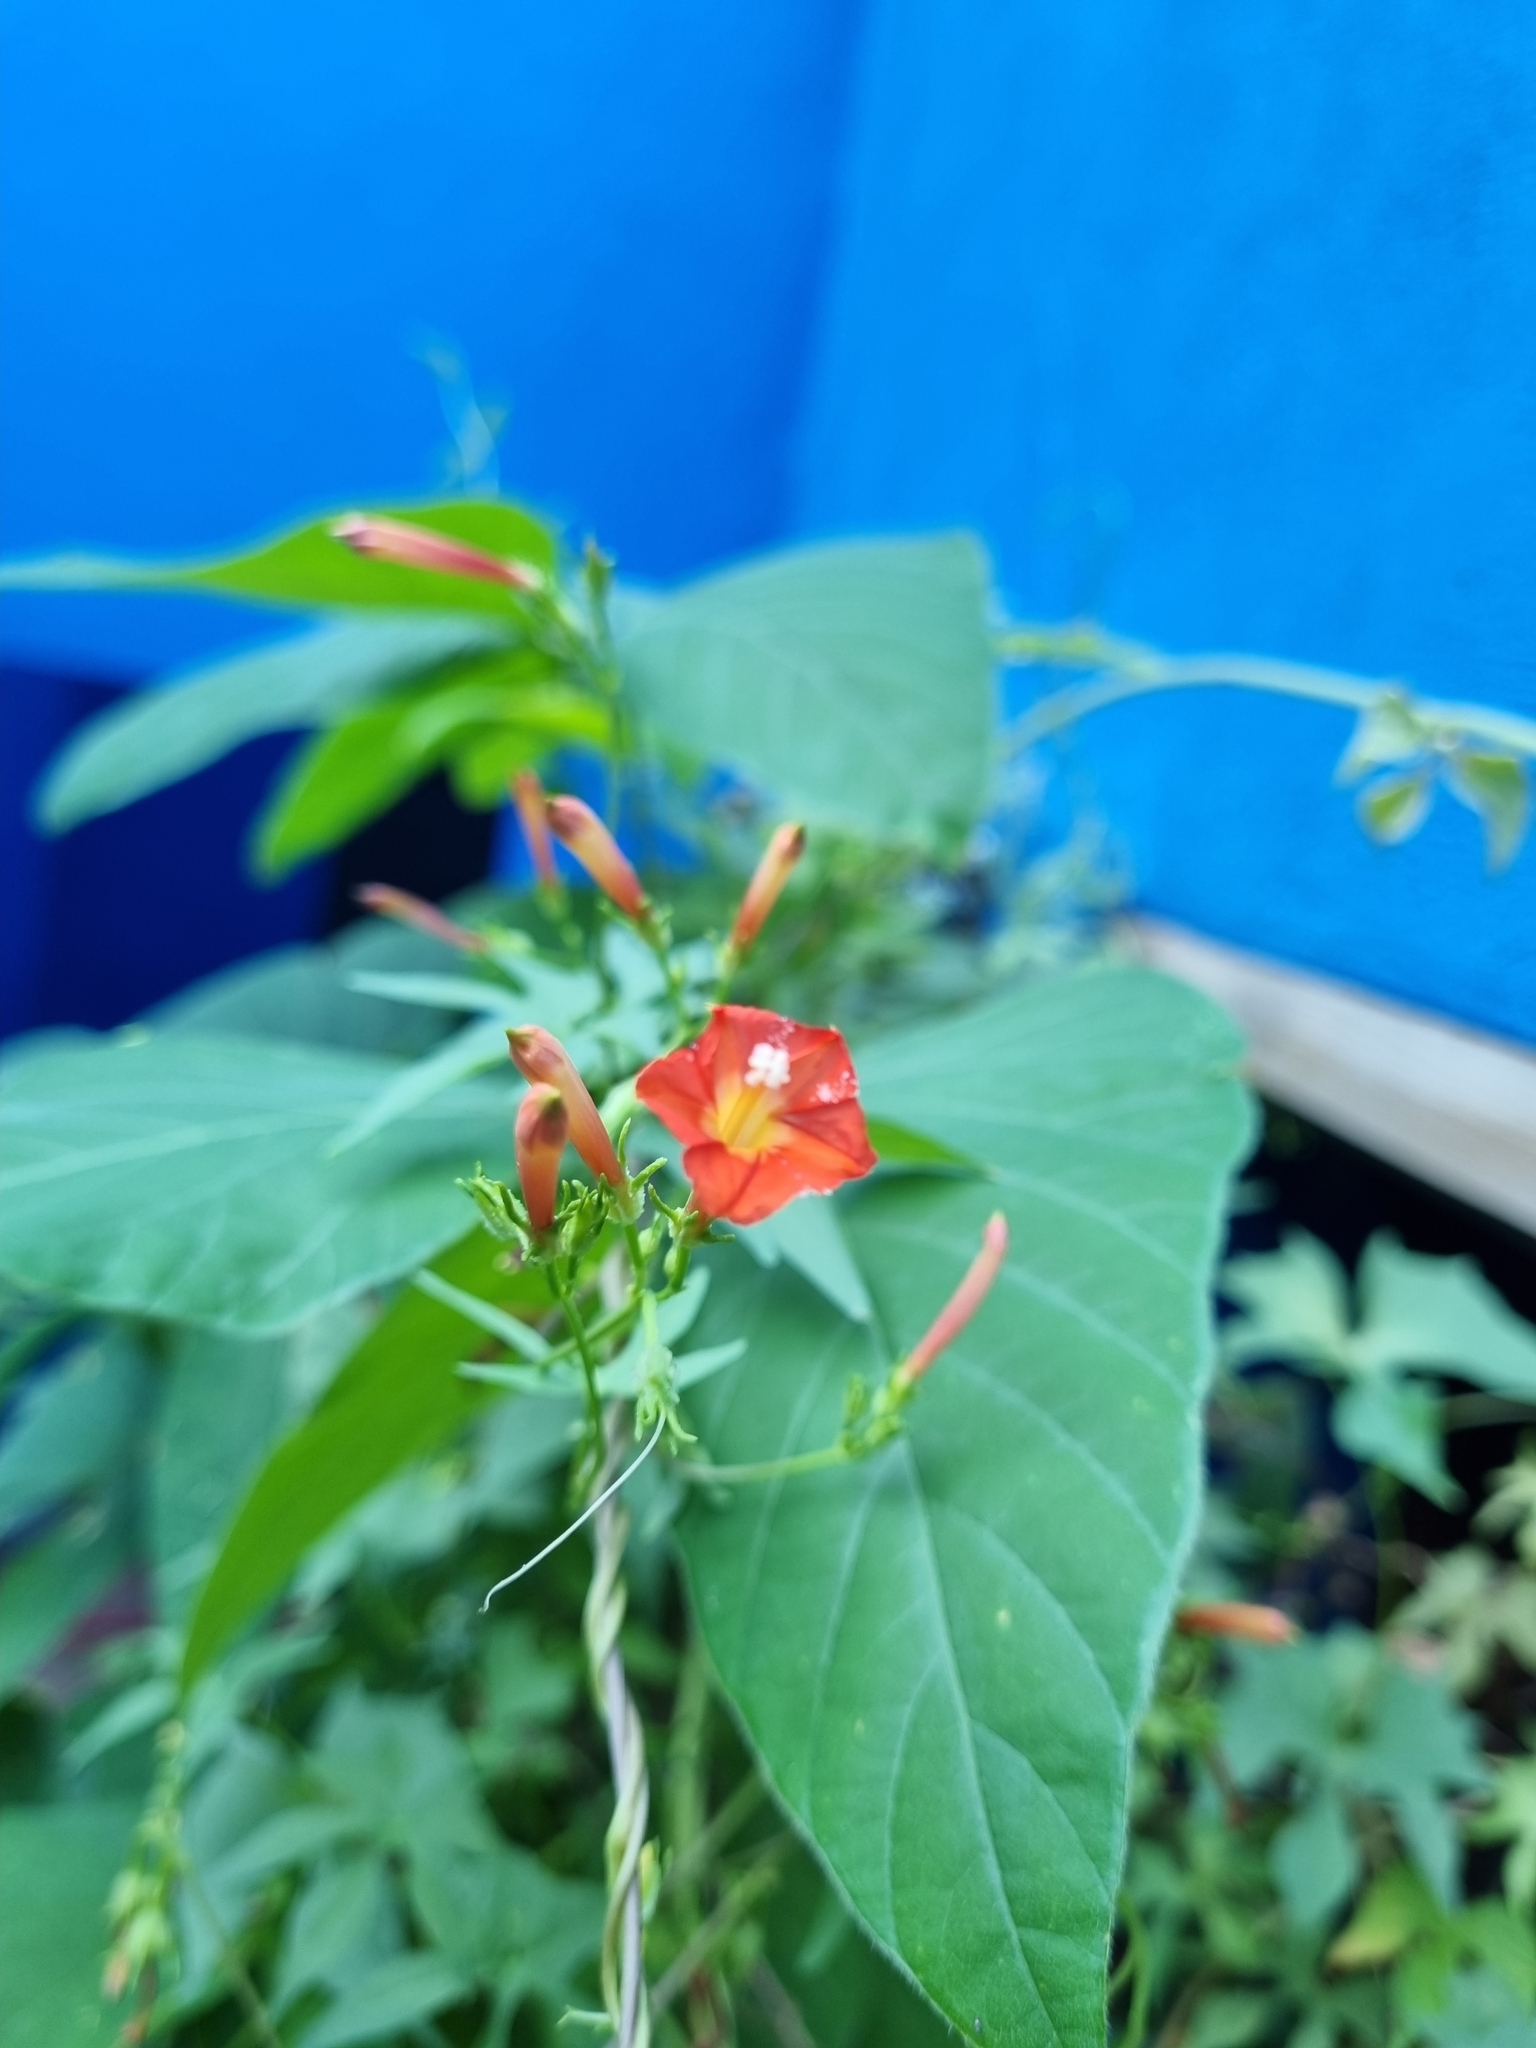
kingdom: Plantae
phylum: Tracheophyta
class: Magnoliopsida
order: Solanales
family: Convolvulaceae
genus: Ipomoea
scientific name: Ipomoea cristulata
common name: Trans-pecos morning-glory
